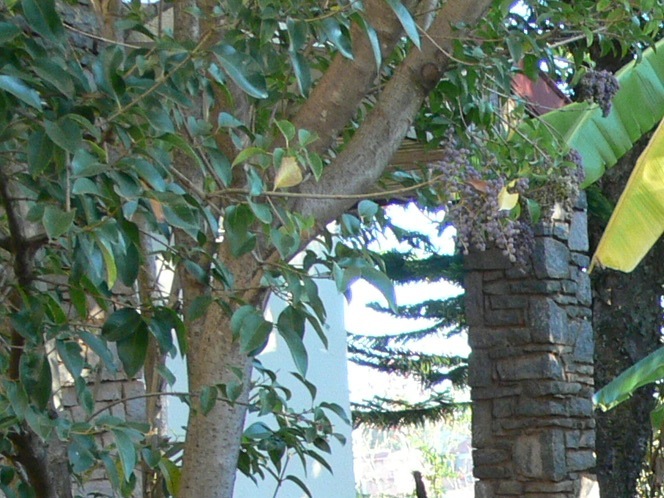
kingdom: Plantae
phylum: Tracheophyta
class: Magnoliopsida
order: Lamiales
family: Oleaceae
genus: Ligustrum
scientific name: Ligustrum lucidum
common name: Glossy privet
